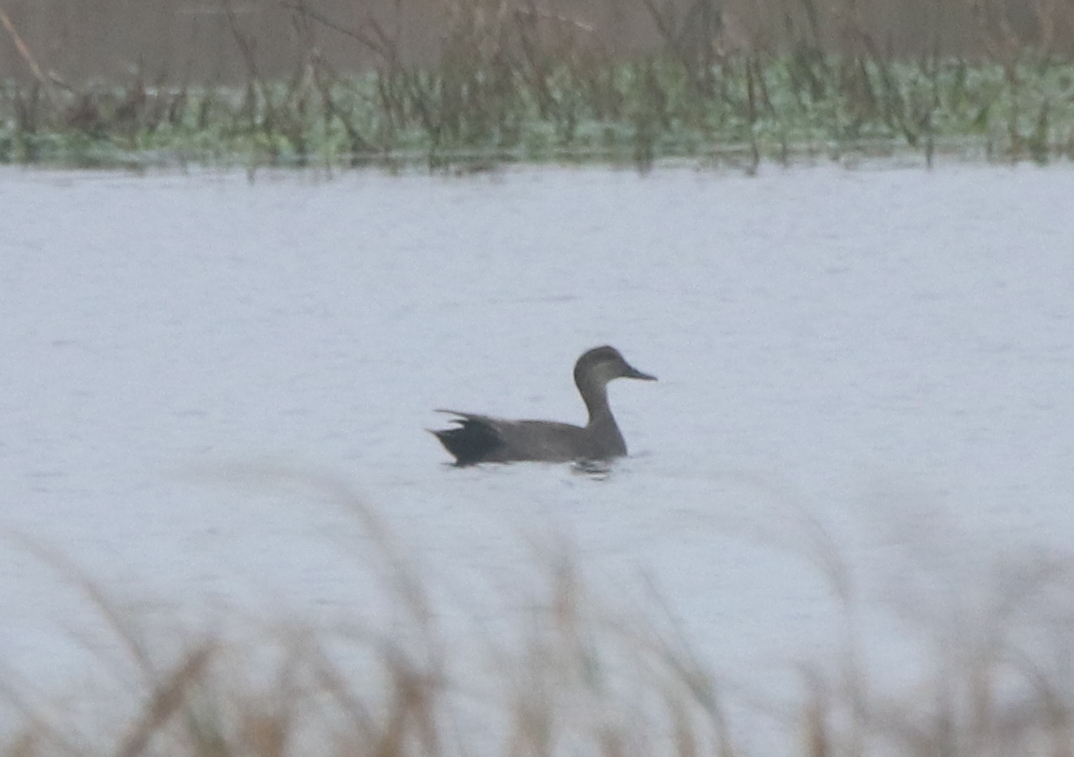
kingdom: Animalia
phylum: Chordata
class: Aves
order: Anseriformes
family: Anatidae
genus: Mareca
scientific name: Mareca strepera
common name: Gadwall
